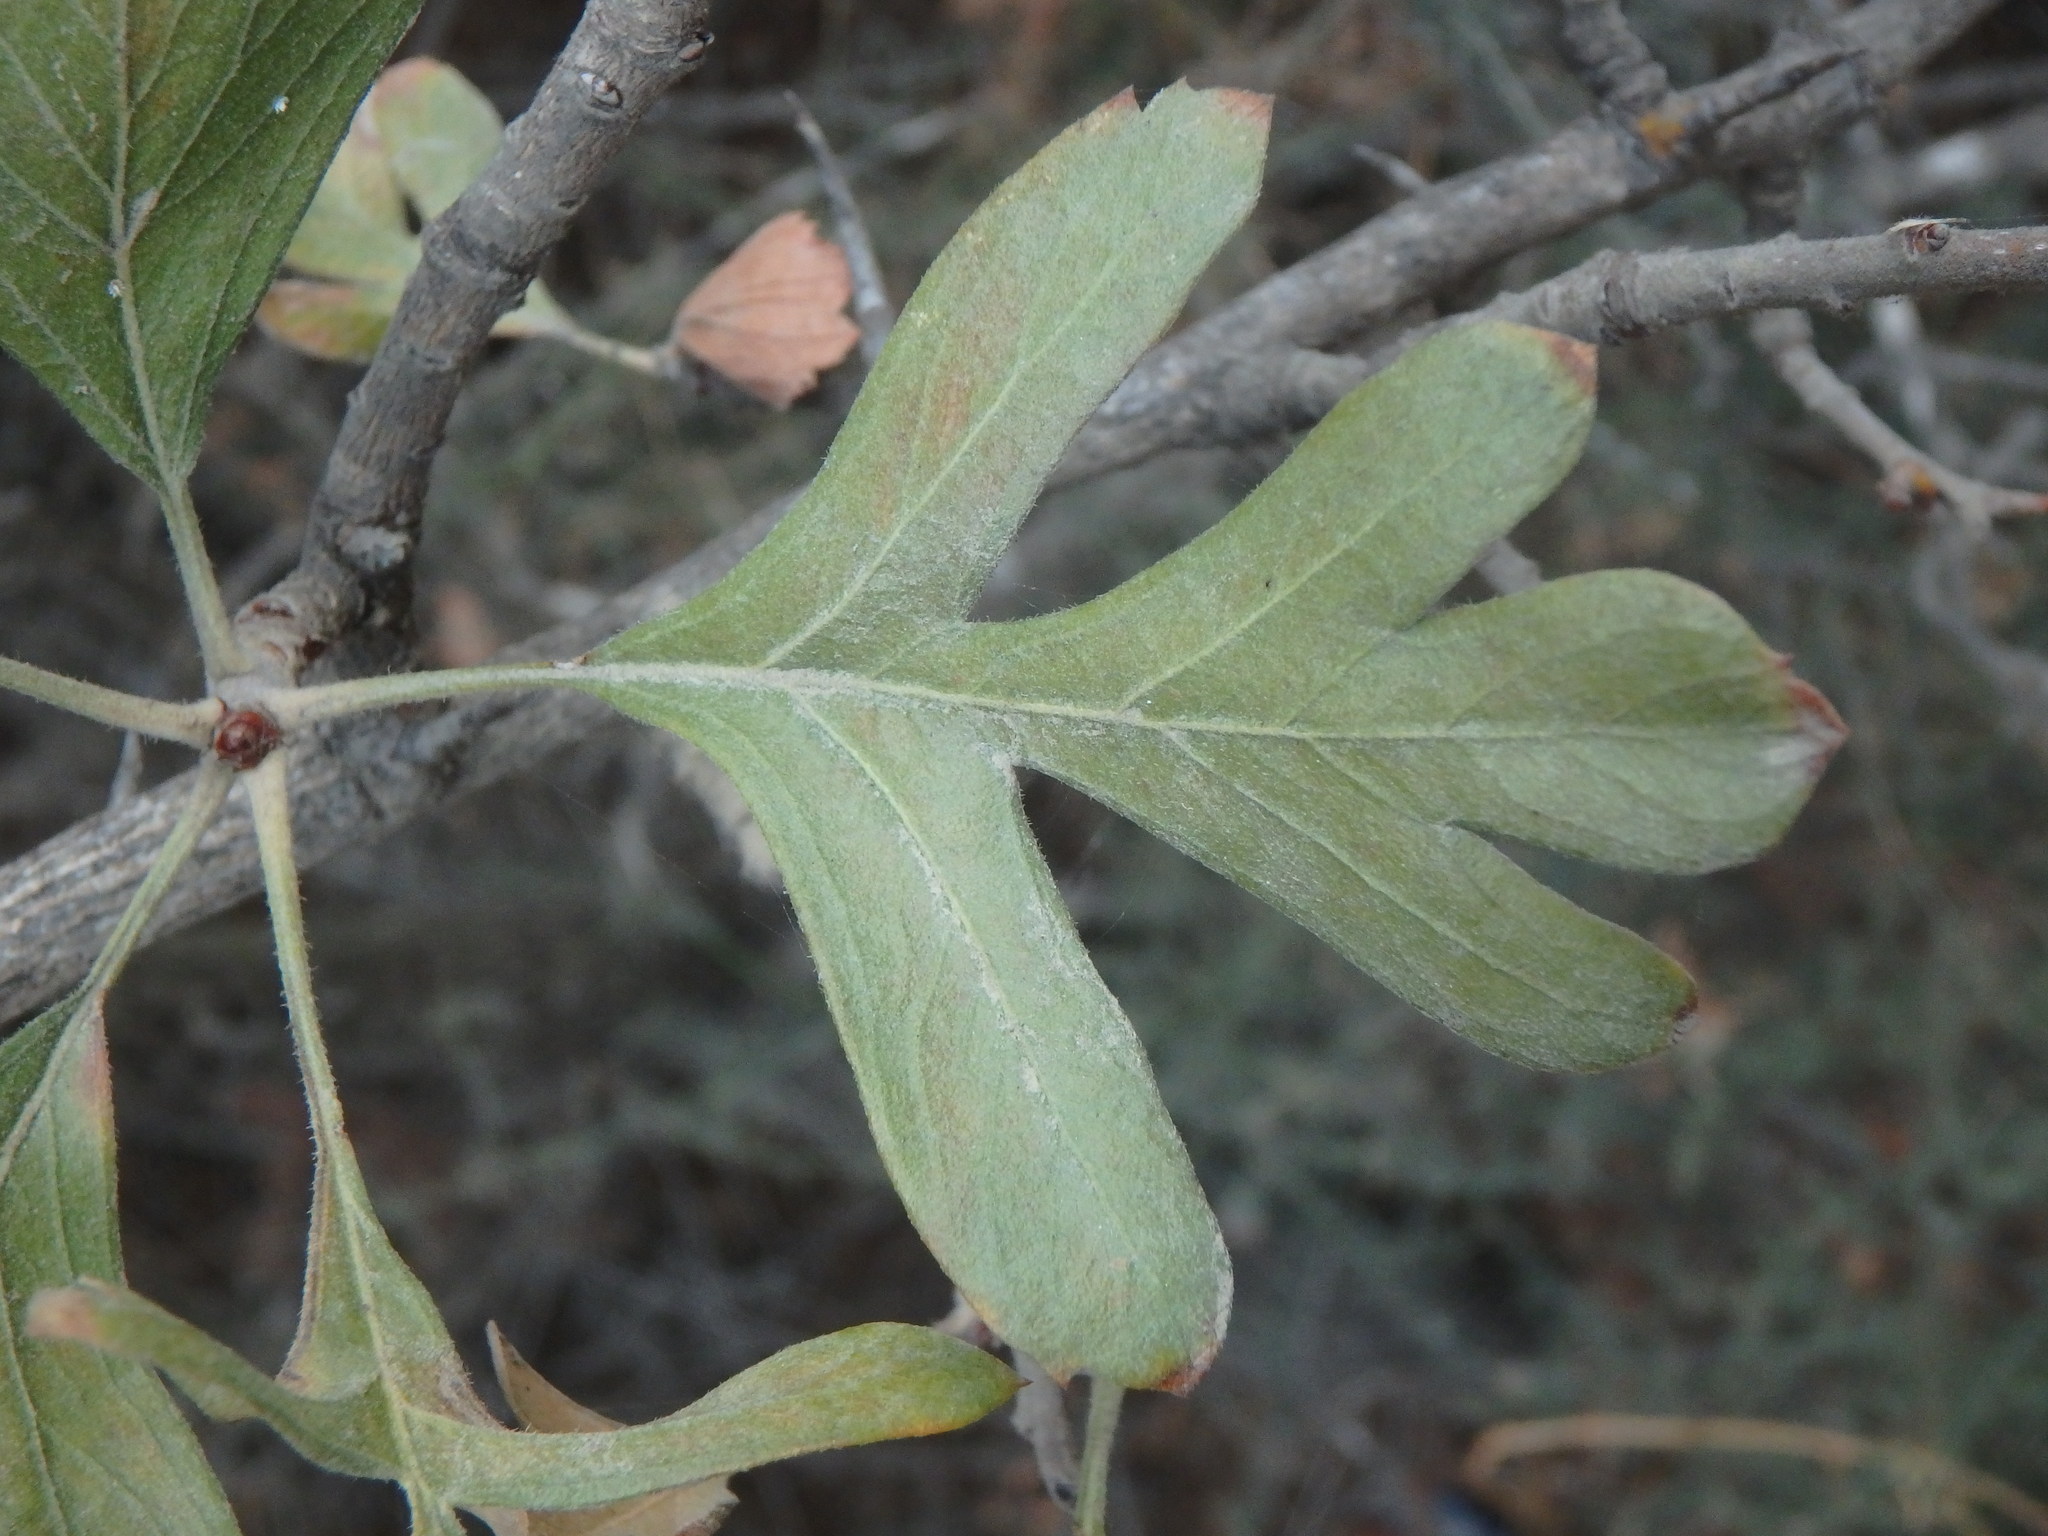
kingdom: Plantae
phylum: Tracheophyta
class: Magnoliopsida
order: Rosales
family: Rosaceae
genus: Crataegus
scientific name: Crataegus azarolus
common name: Azarole
